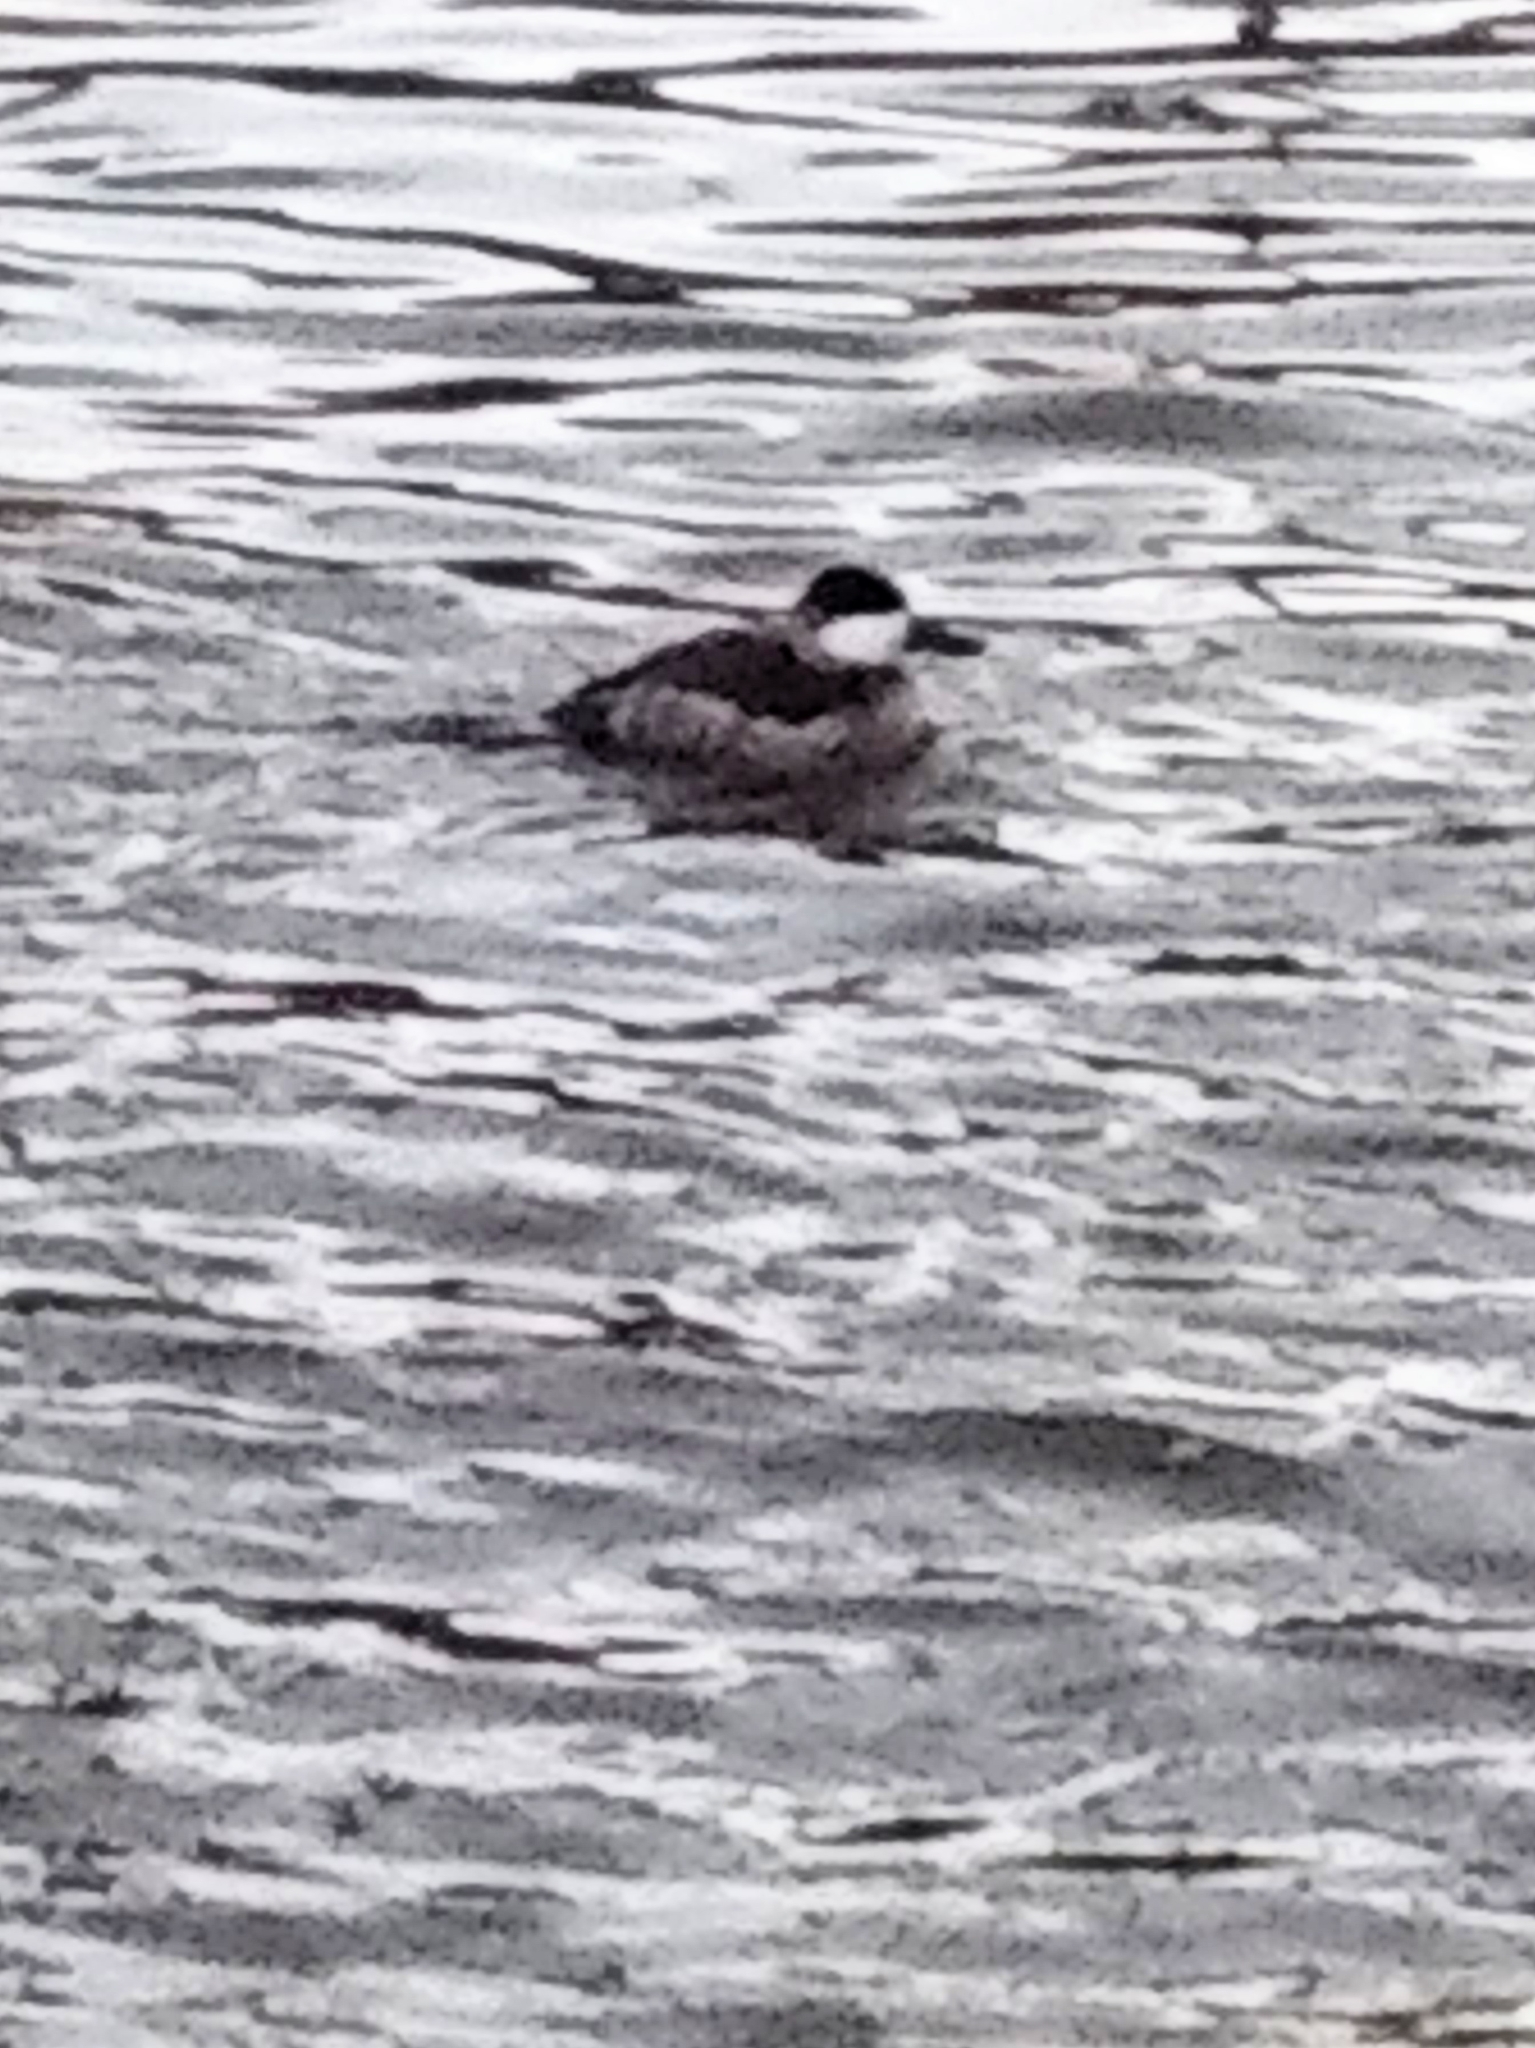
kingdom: Animalia
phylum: Chordata
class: Aves
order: Anseriformes
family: Anatidae
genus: Oxyura
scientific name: Oxyura jamaicensis
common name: Ruddy duck
